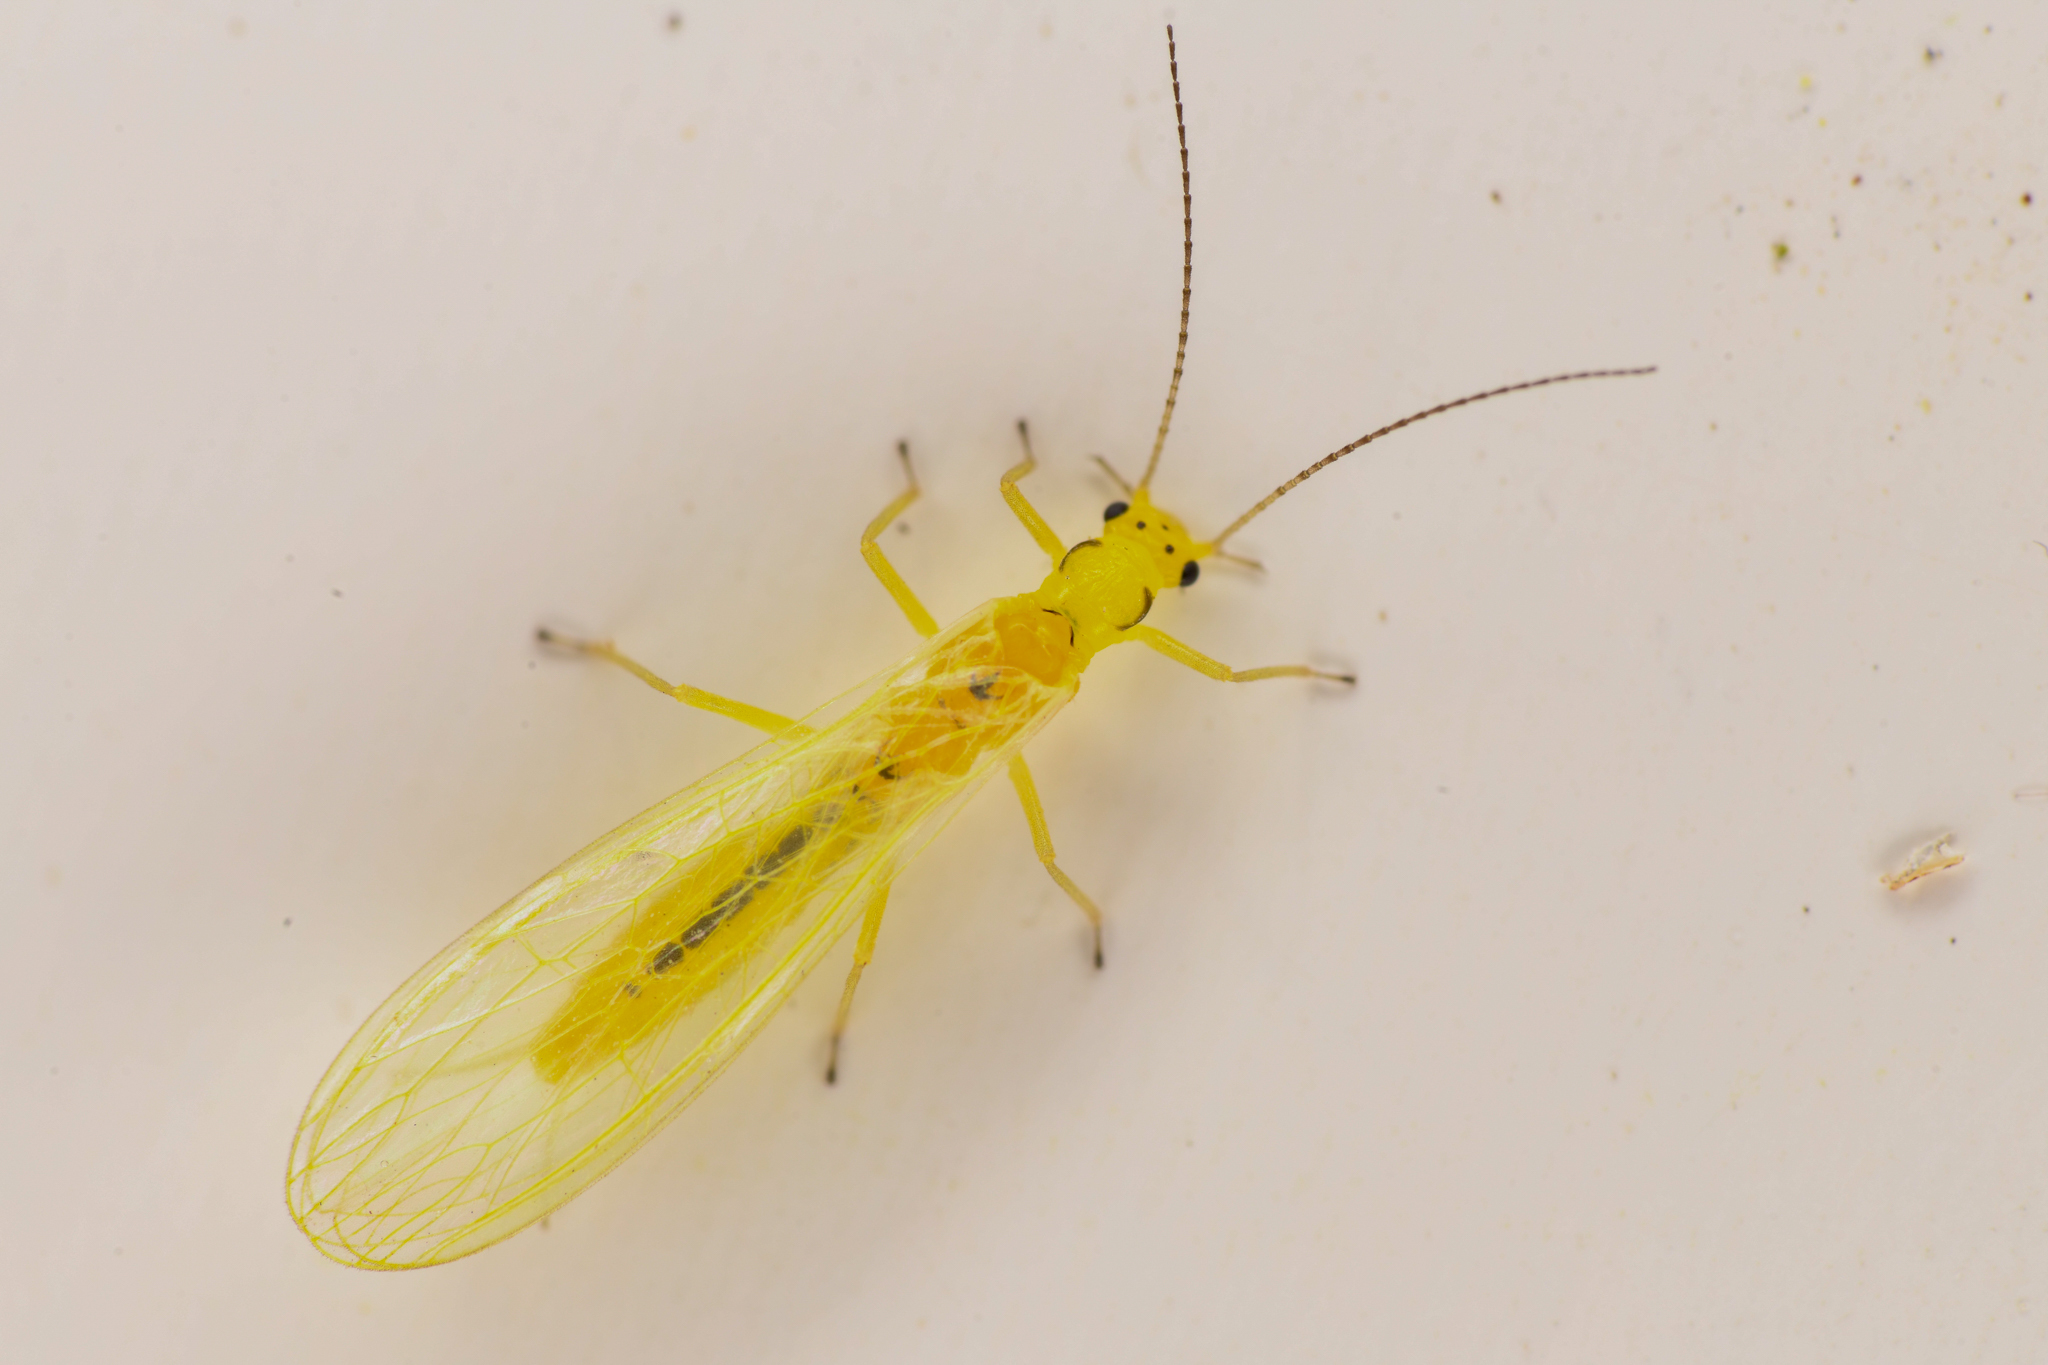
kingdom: Animalia
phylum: Arthropoda
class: Insecta
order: Plecoptera
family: Chloroperlidae
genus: Plumiperla
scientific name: Plumiperla diversa
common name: Margined sallfly
